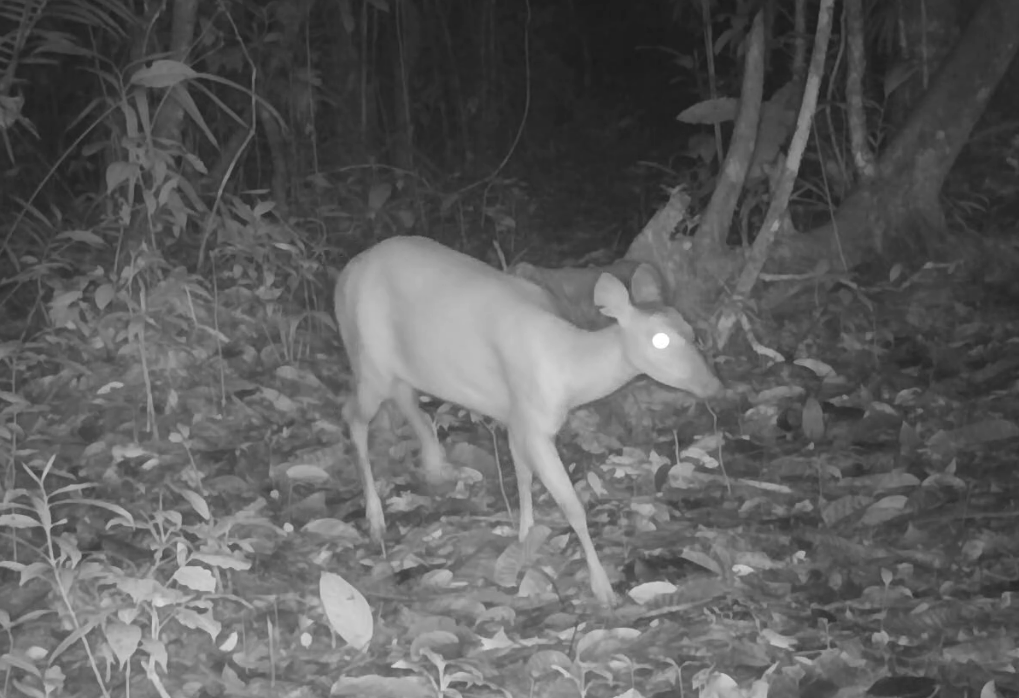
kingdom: Animalia
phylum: Chordata
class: Mammalia
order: Artiodactyla
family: Cervidae
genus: Mazama
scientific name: Mazama americana
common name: Red brocket
